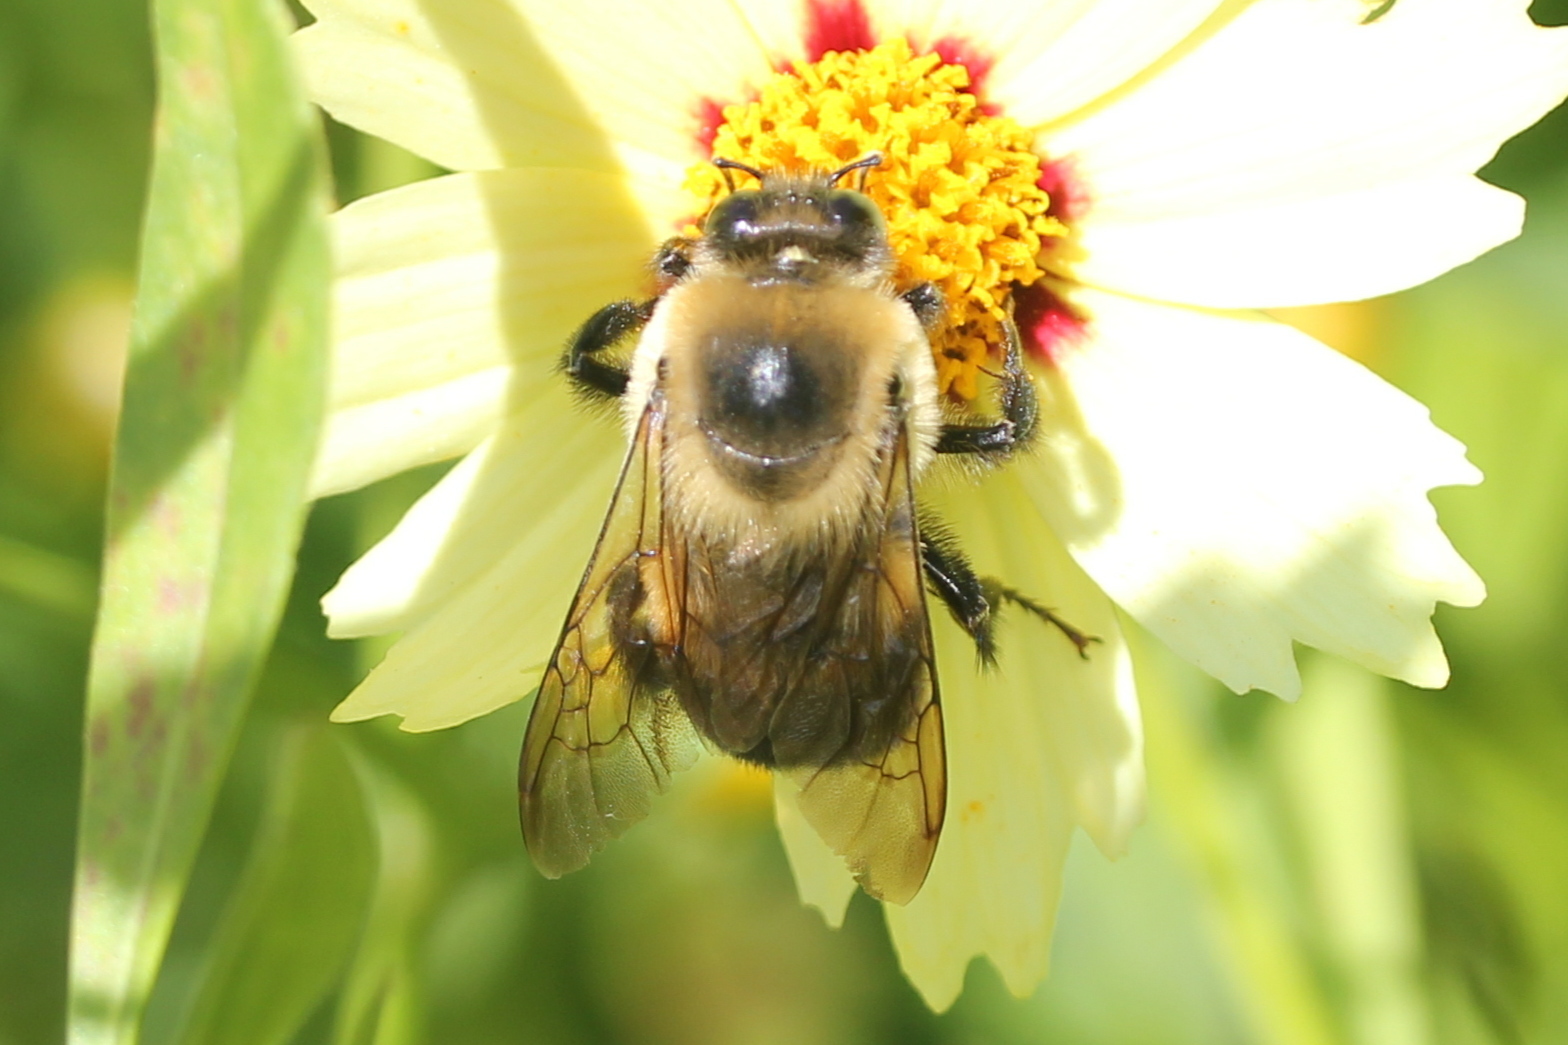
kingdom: Animalia
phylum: Arthropoda
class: Insecta
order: Hymenoptera
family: Apidae
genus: Bombus
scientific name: Bombus griseocollis
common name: Brown-belted bumble bee
